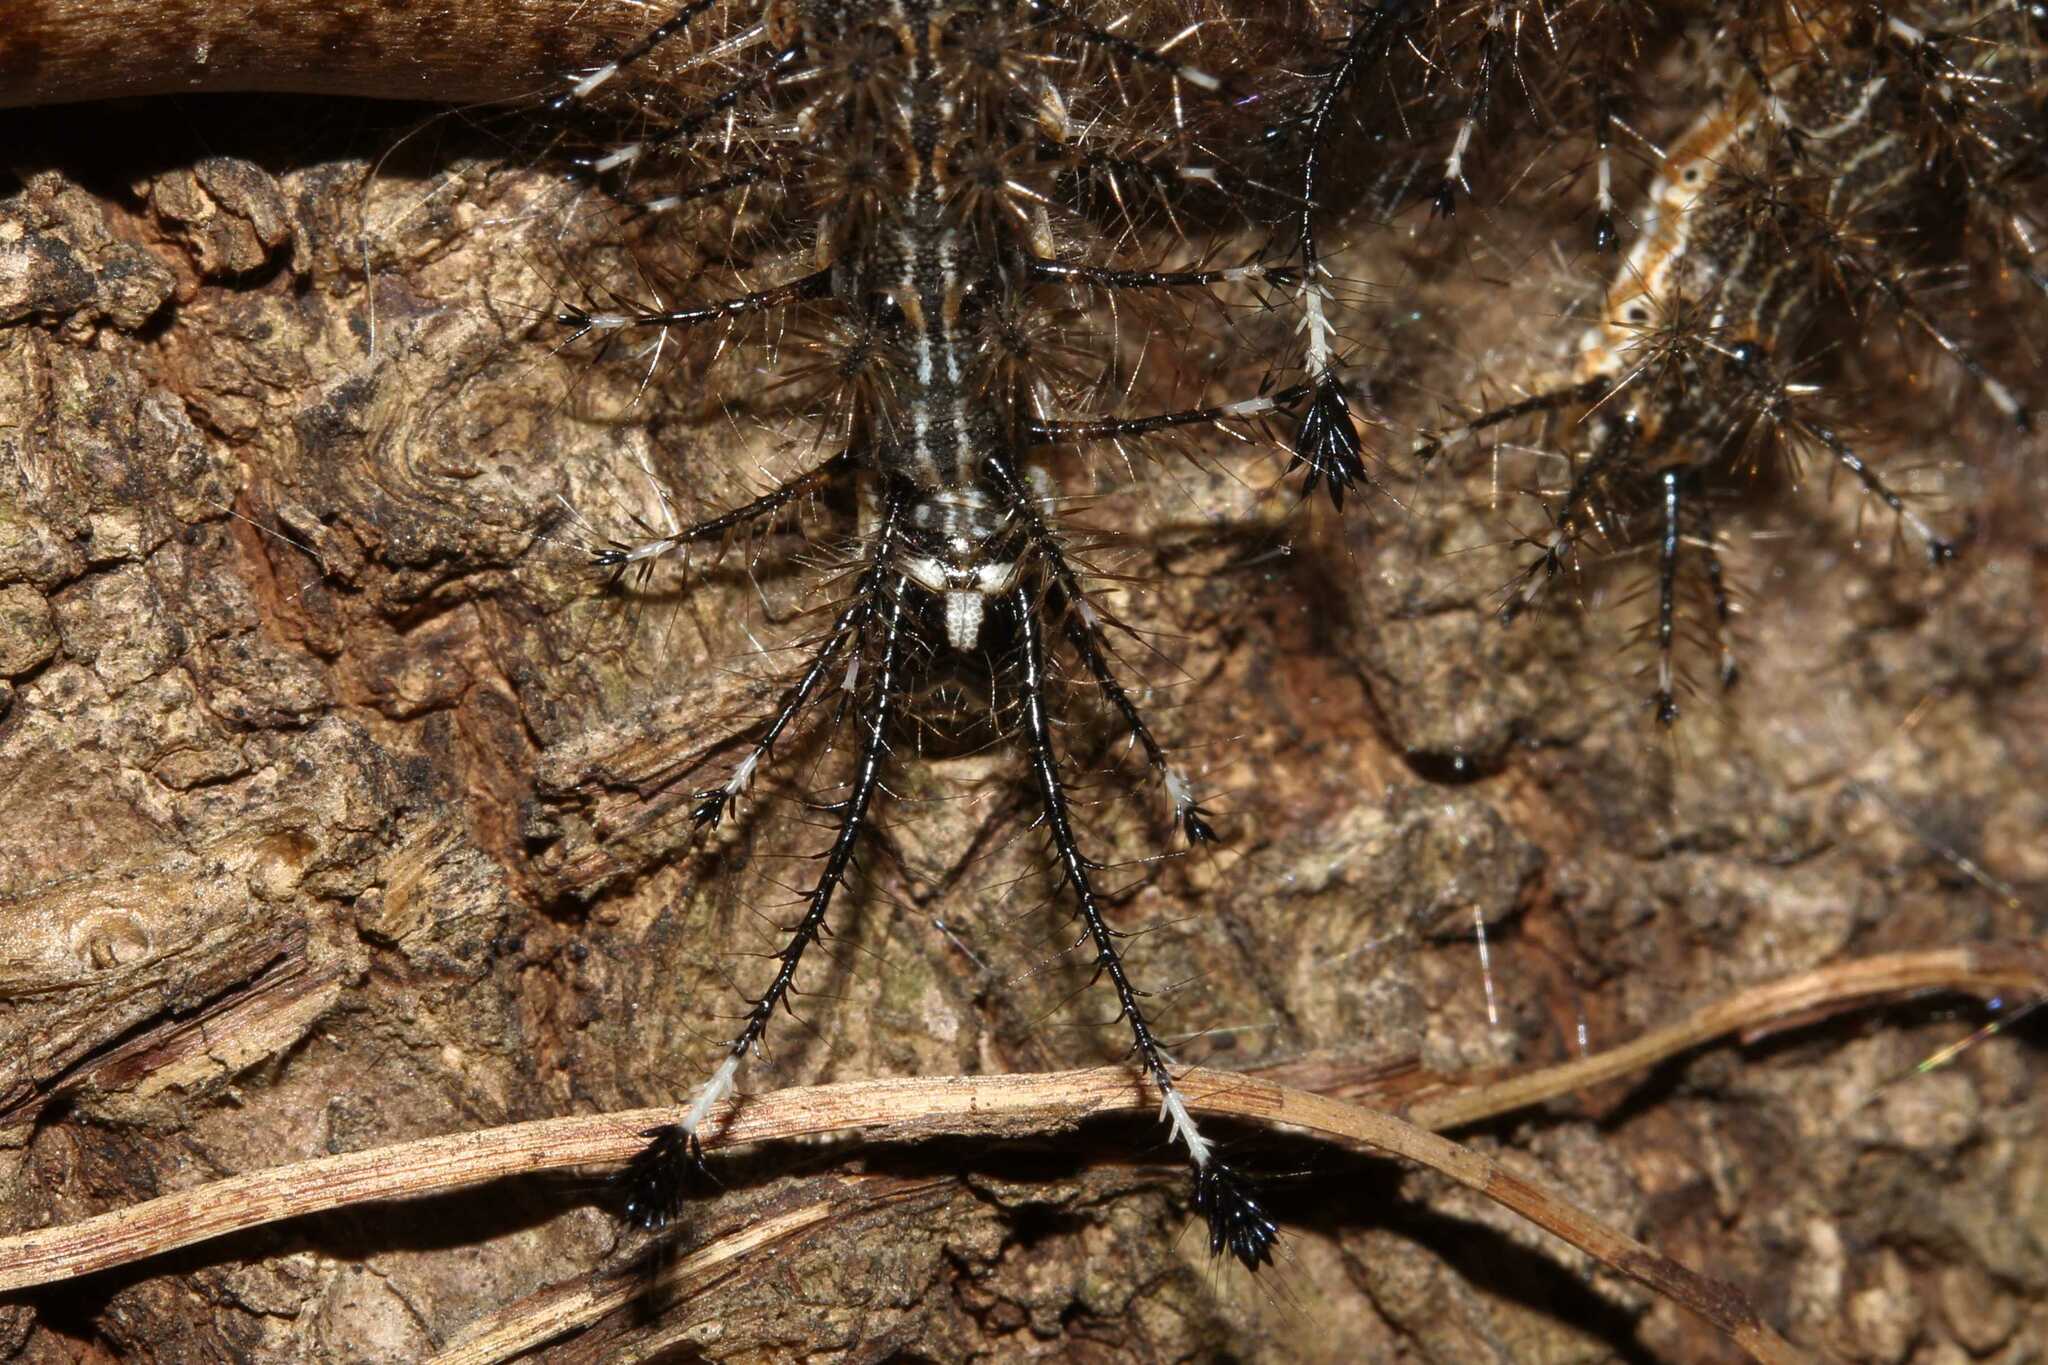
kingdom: Animalia
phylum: Arthropoda
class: Insecta
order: Lepidoptera
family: Saturniidae
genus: Hylesia
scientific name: Hylesia
